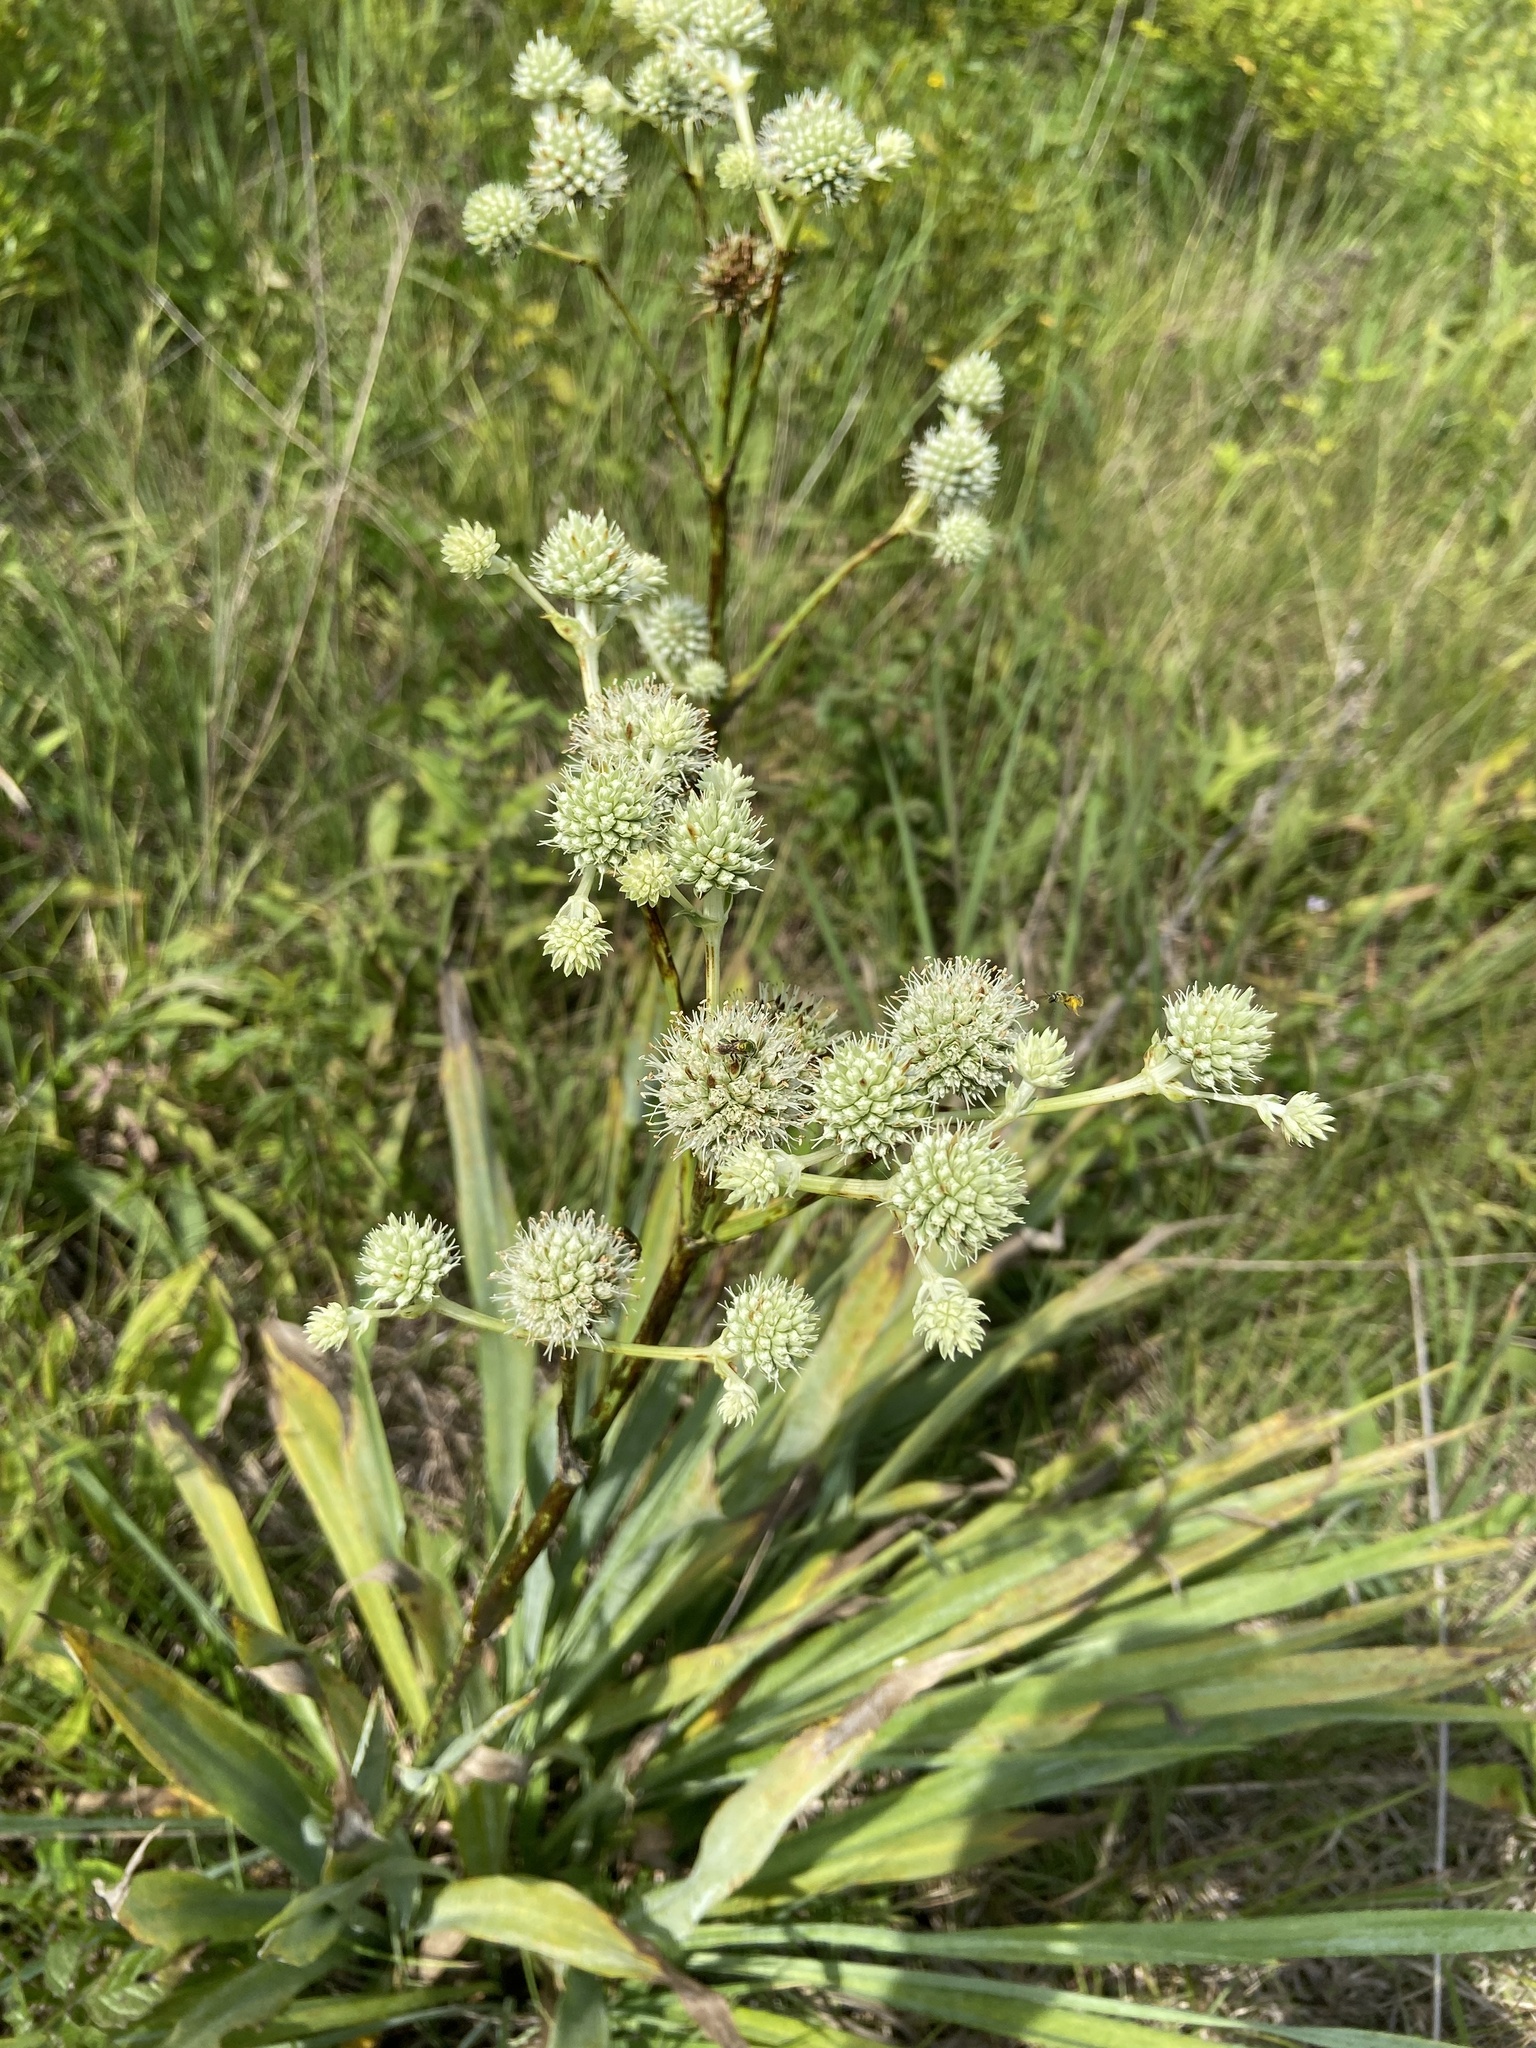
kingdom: Plantae
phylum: Tracheophyta
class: Magnoliopsida
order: Apiales
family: Apiaceae
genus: Eryngium
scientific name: Eryngium yuccifolium
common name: Button eryngo
